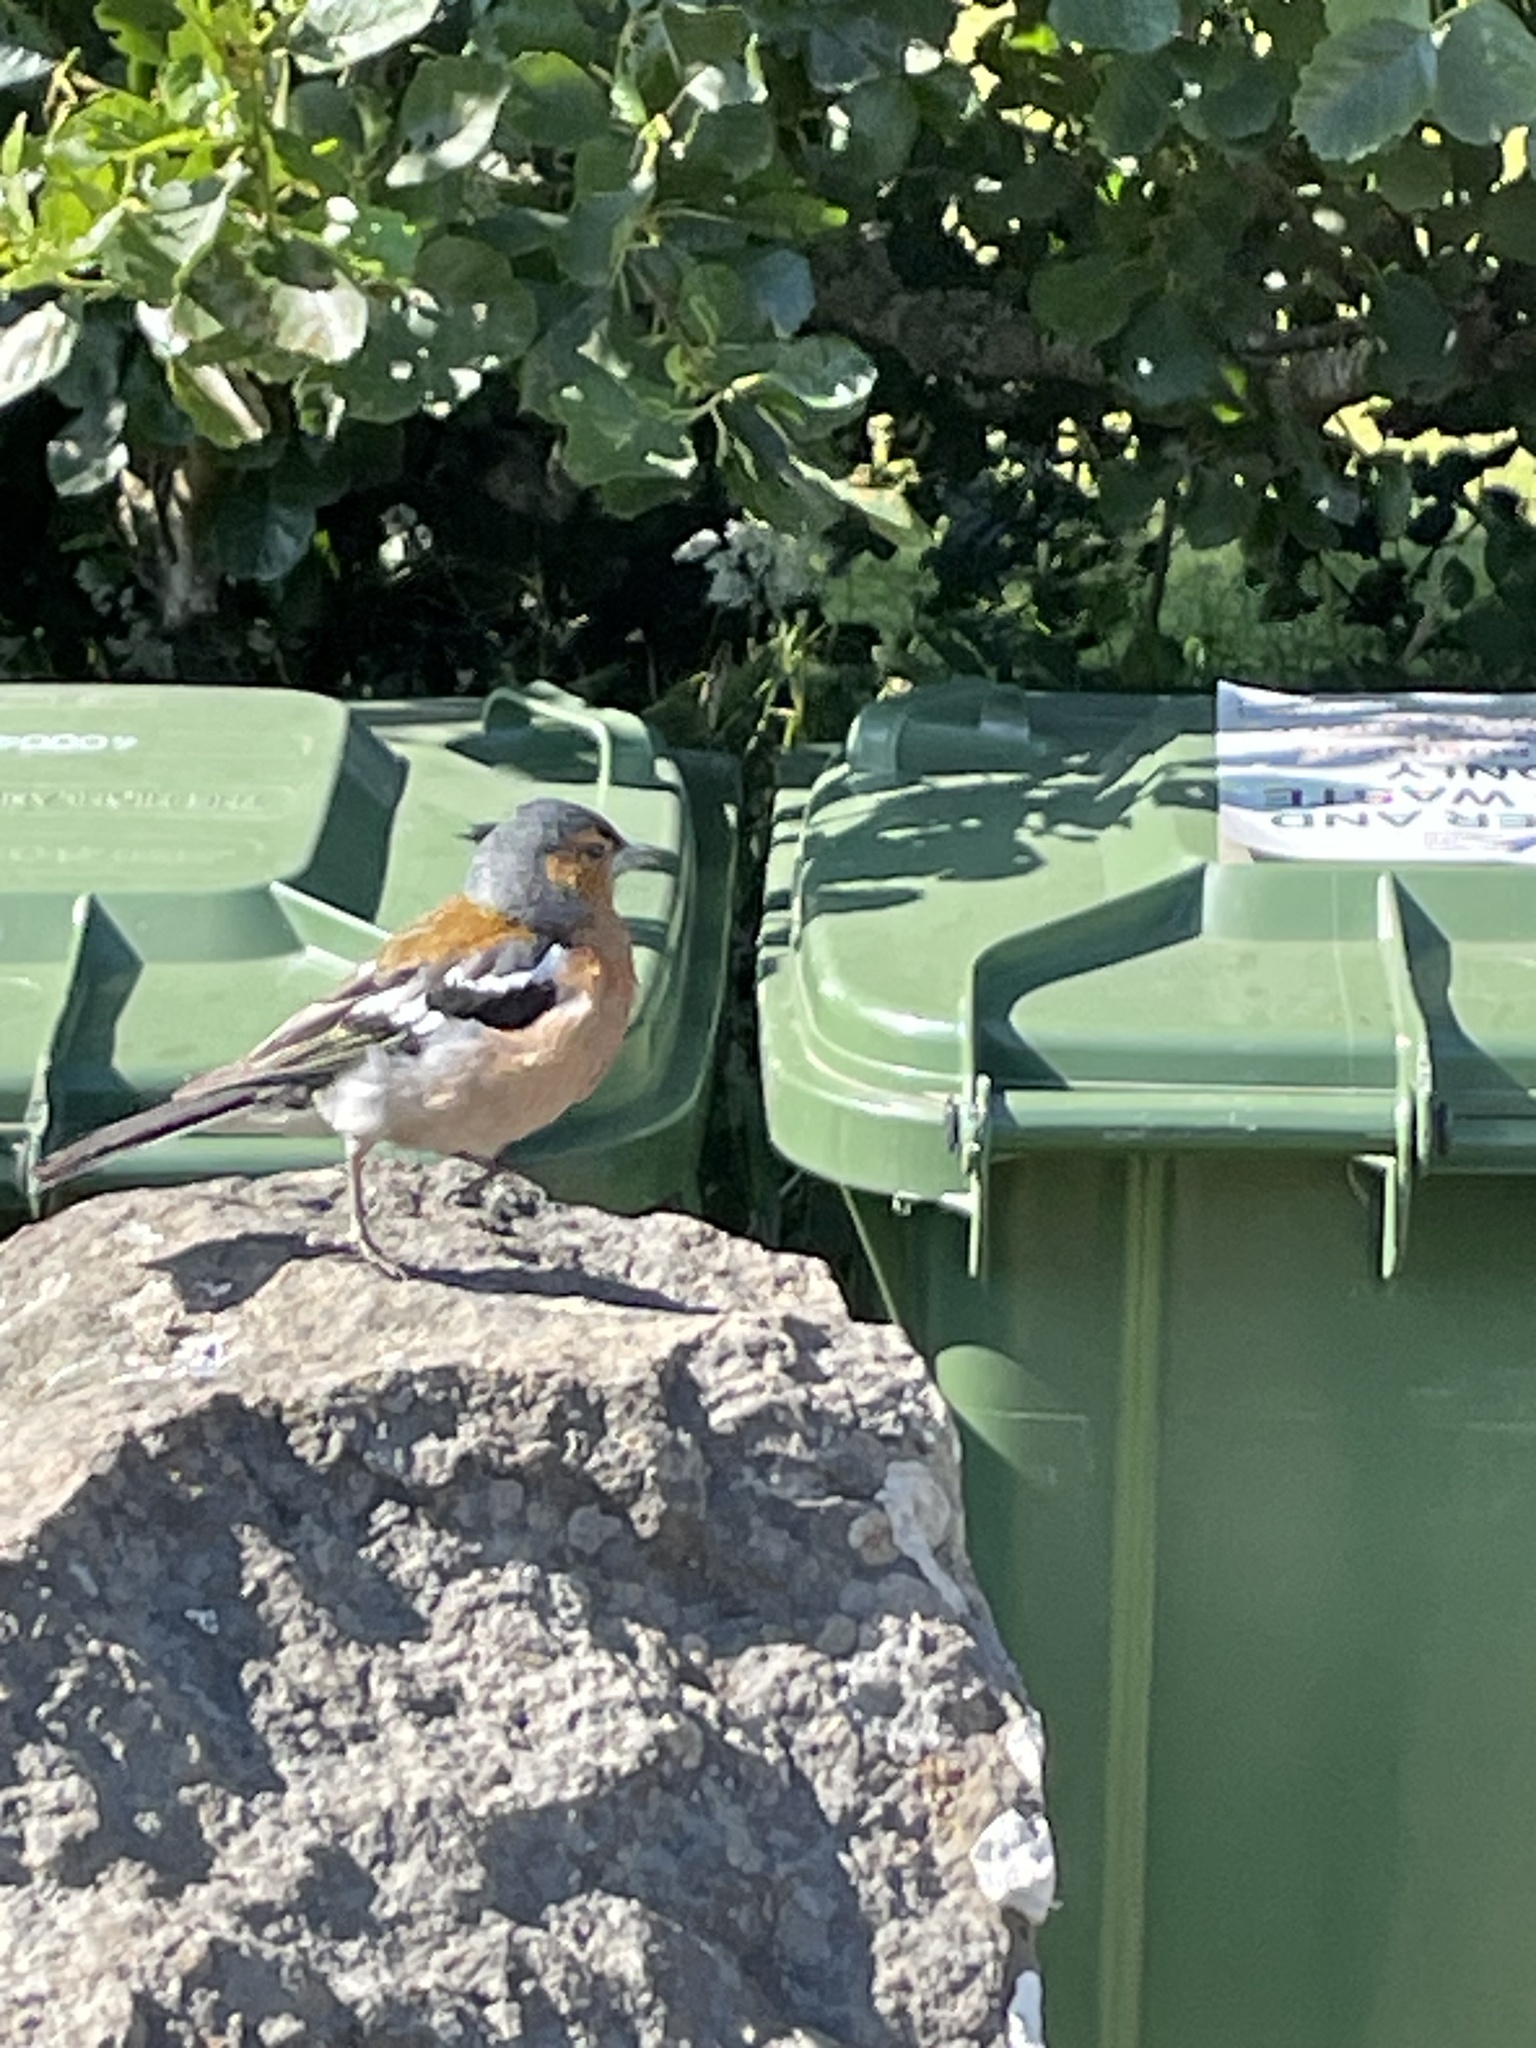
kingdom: Animalia
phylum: Chordata
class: Aves
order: Passeriformes
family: Fringillidae
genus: Fringilla
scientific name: Fringilla coelebs
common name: Common chaffinch
